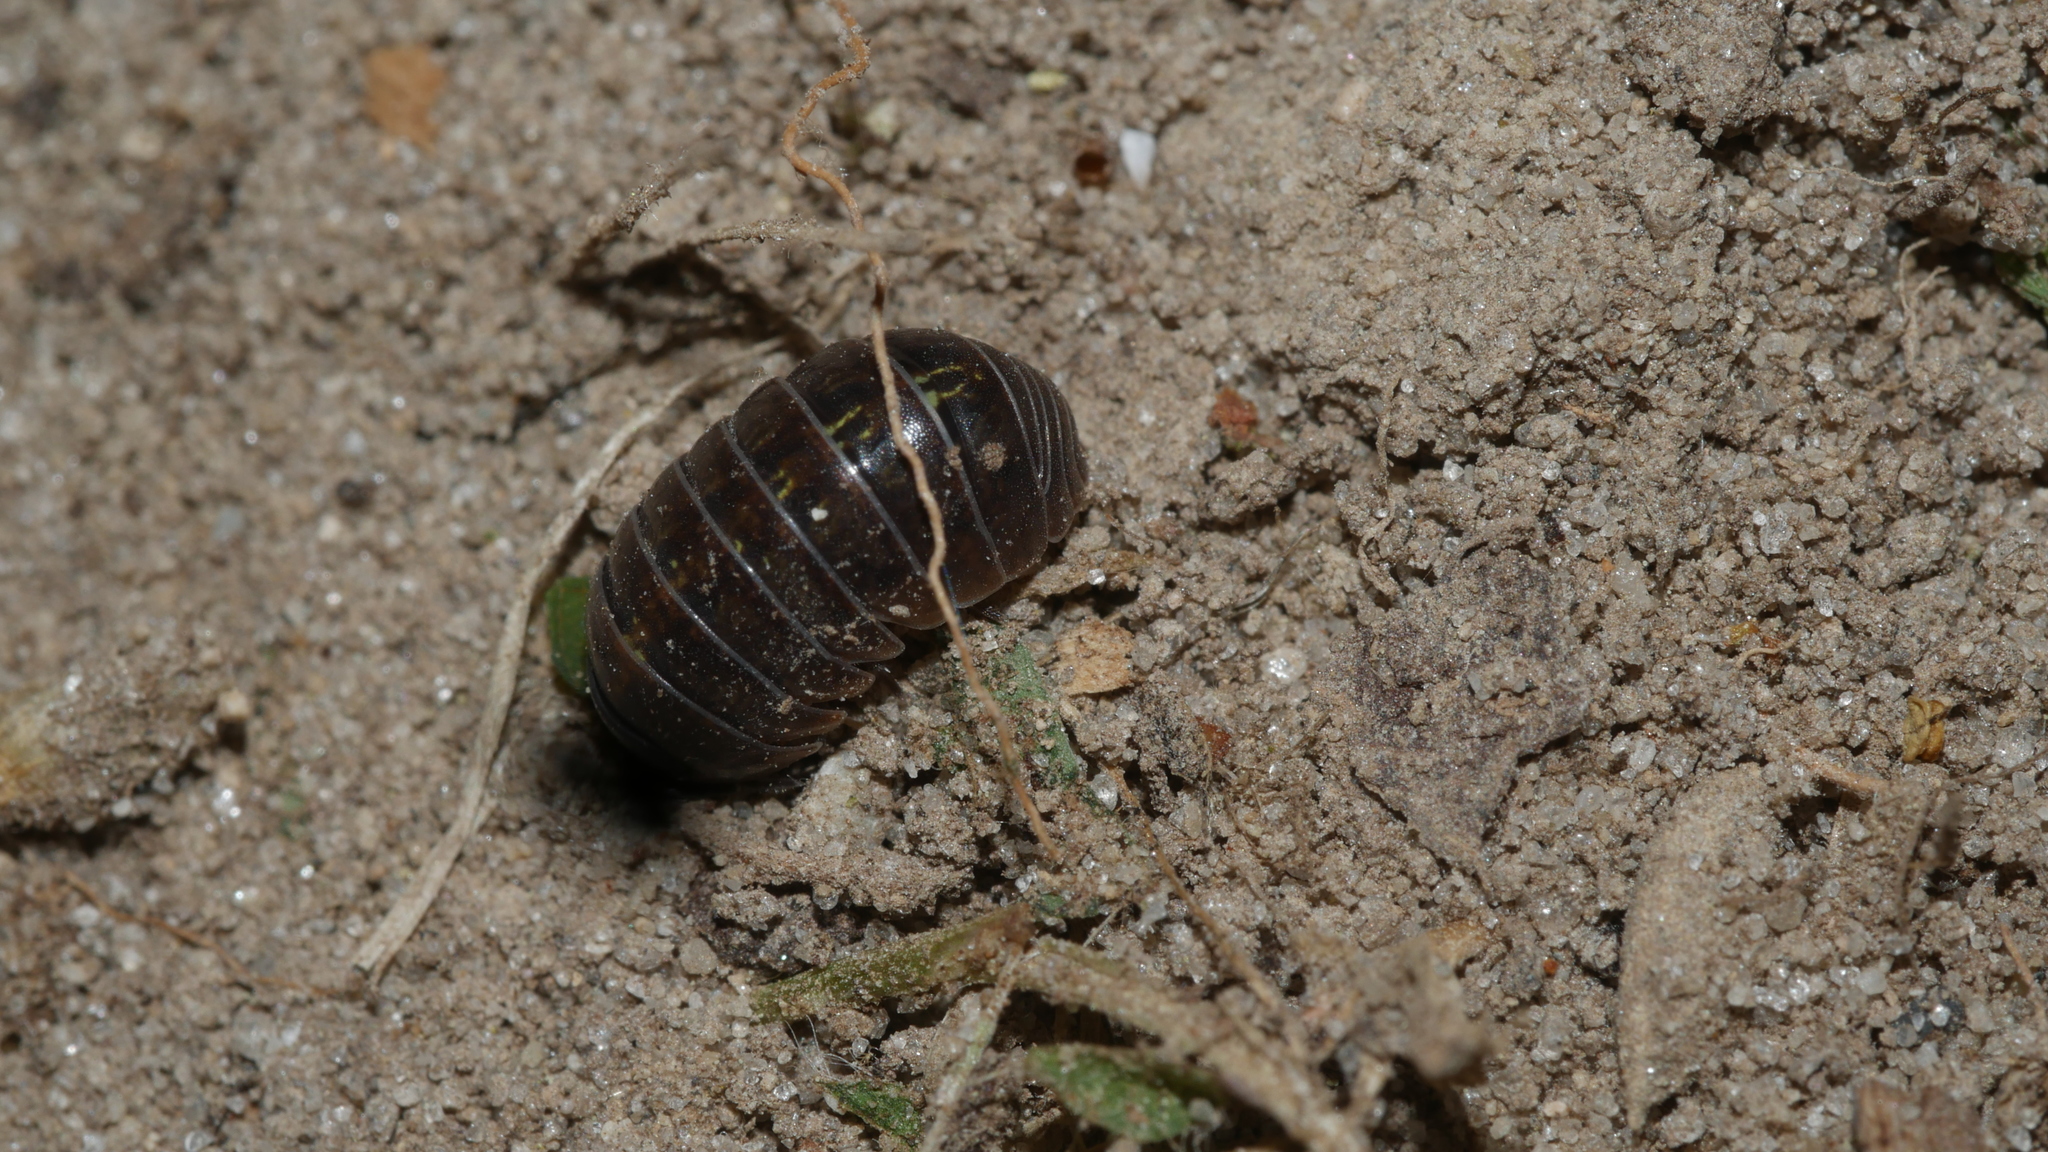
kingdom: Animalia
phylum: Arthropoda
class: Malacostraca
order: Isopoda
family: Armadillidiidae
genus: Armadillidium
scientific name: Armadillidium vulgare
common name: Common pill woodlouse
